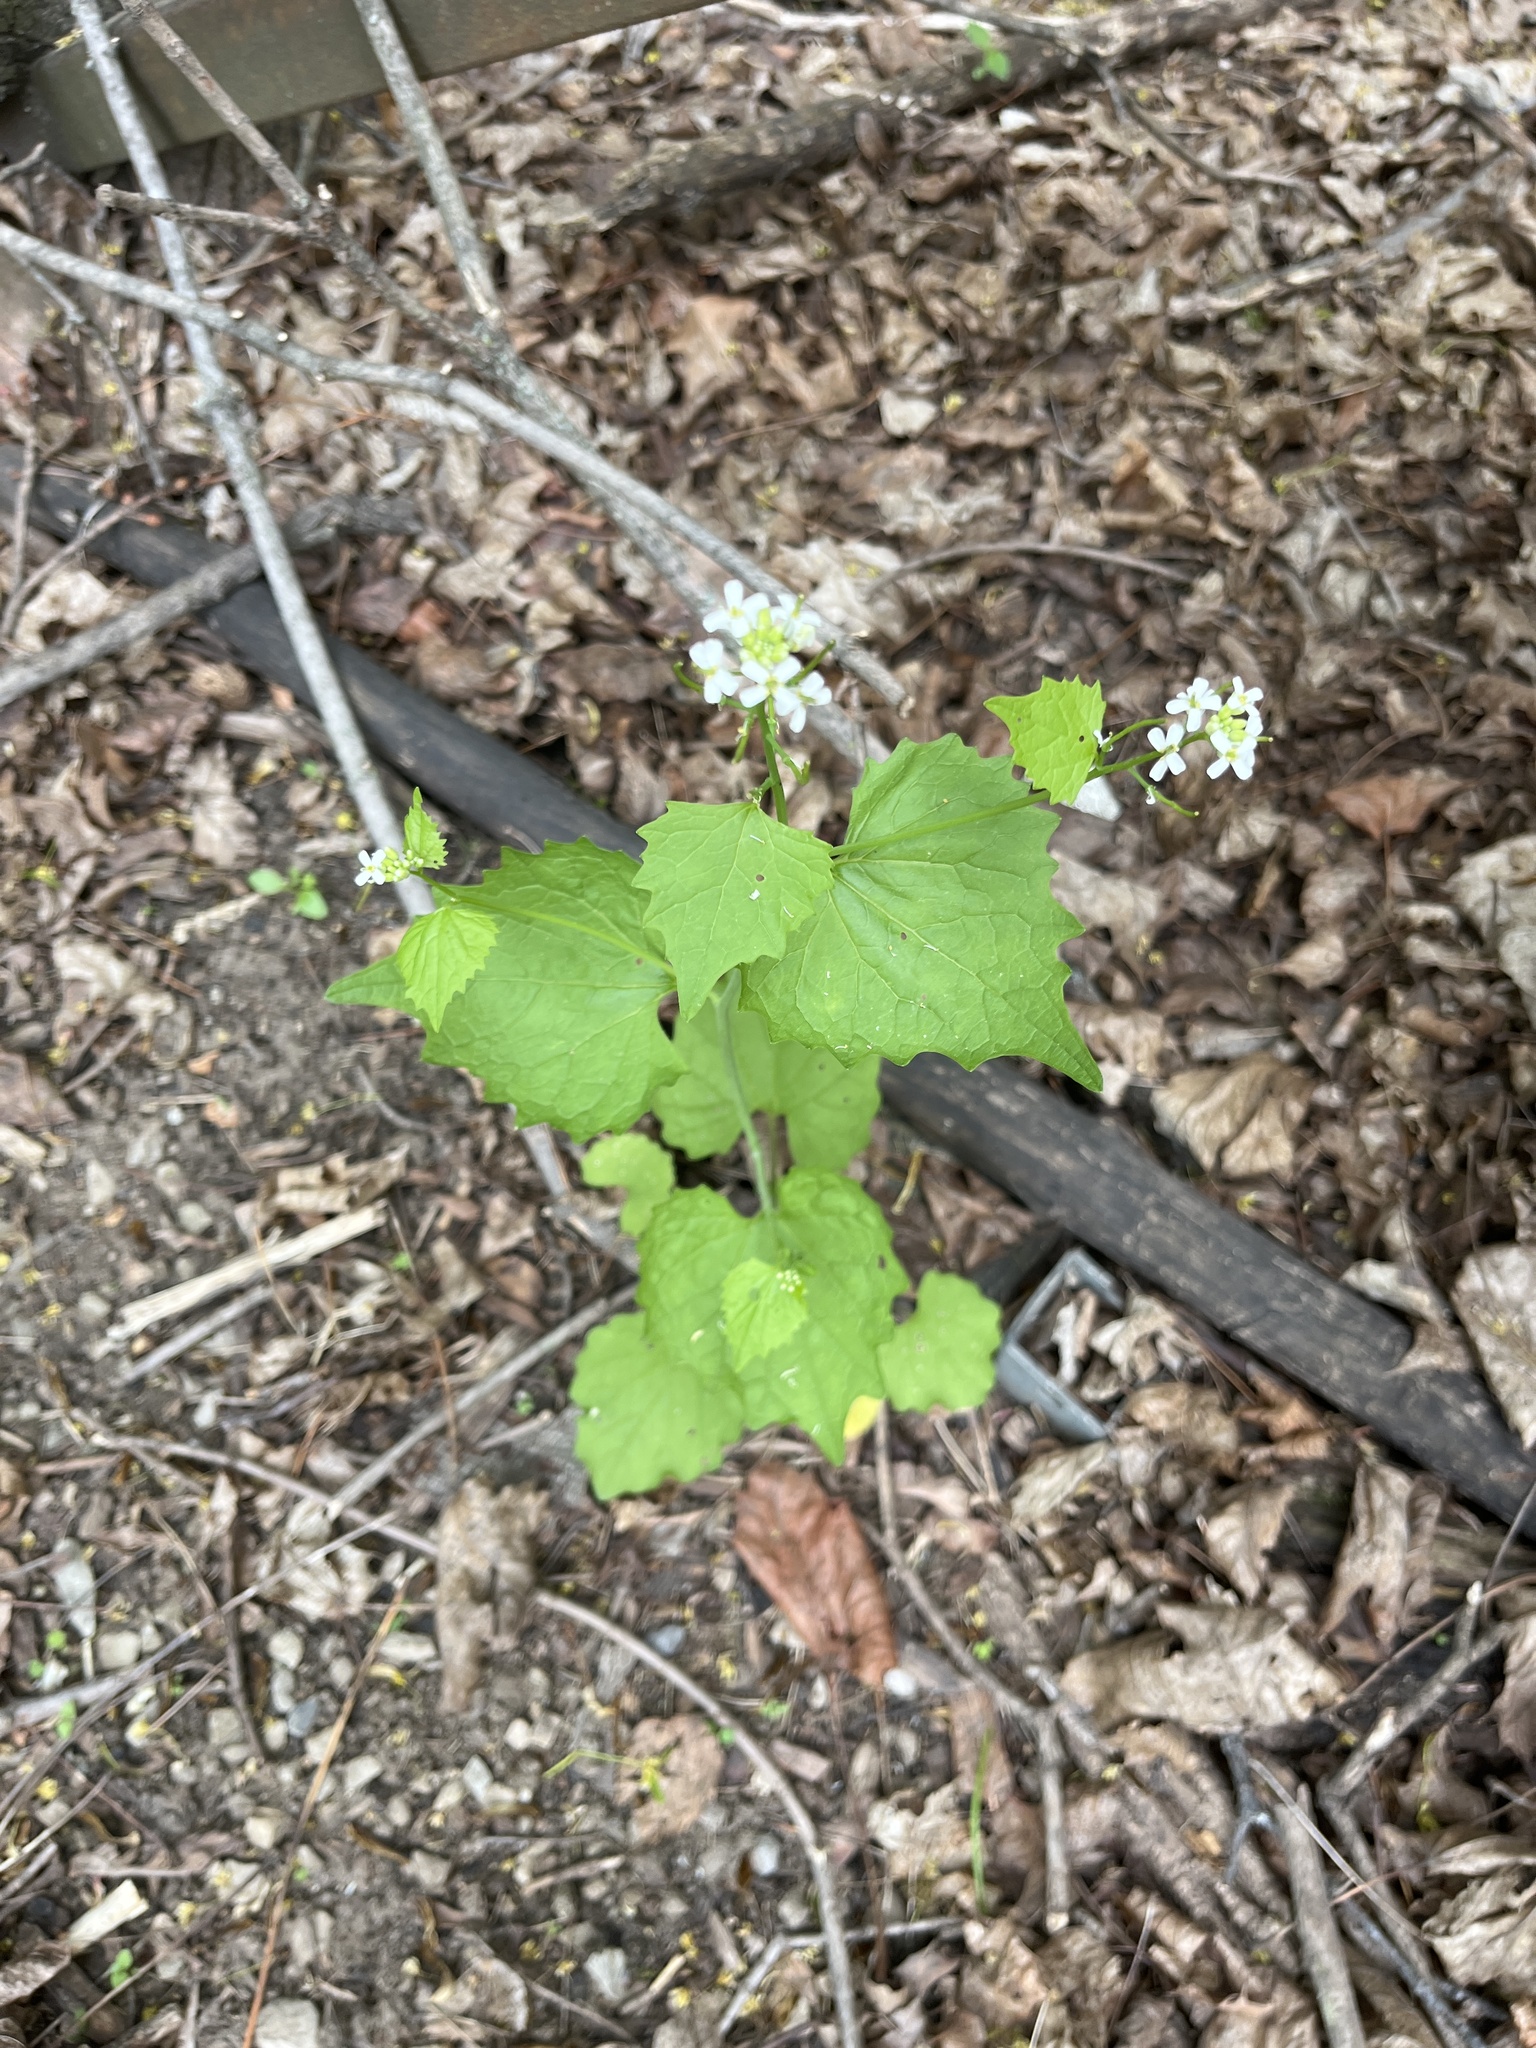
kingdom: Plantae
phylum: Tracheophyta
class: Magnoliopsida
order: Brassicales
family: Brassicaceae
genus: Alliaria
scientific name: Alliaria petiolata
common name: Garlic mustard
